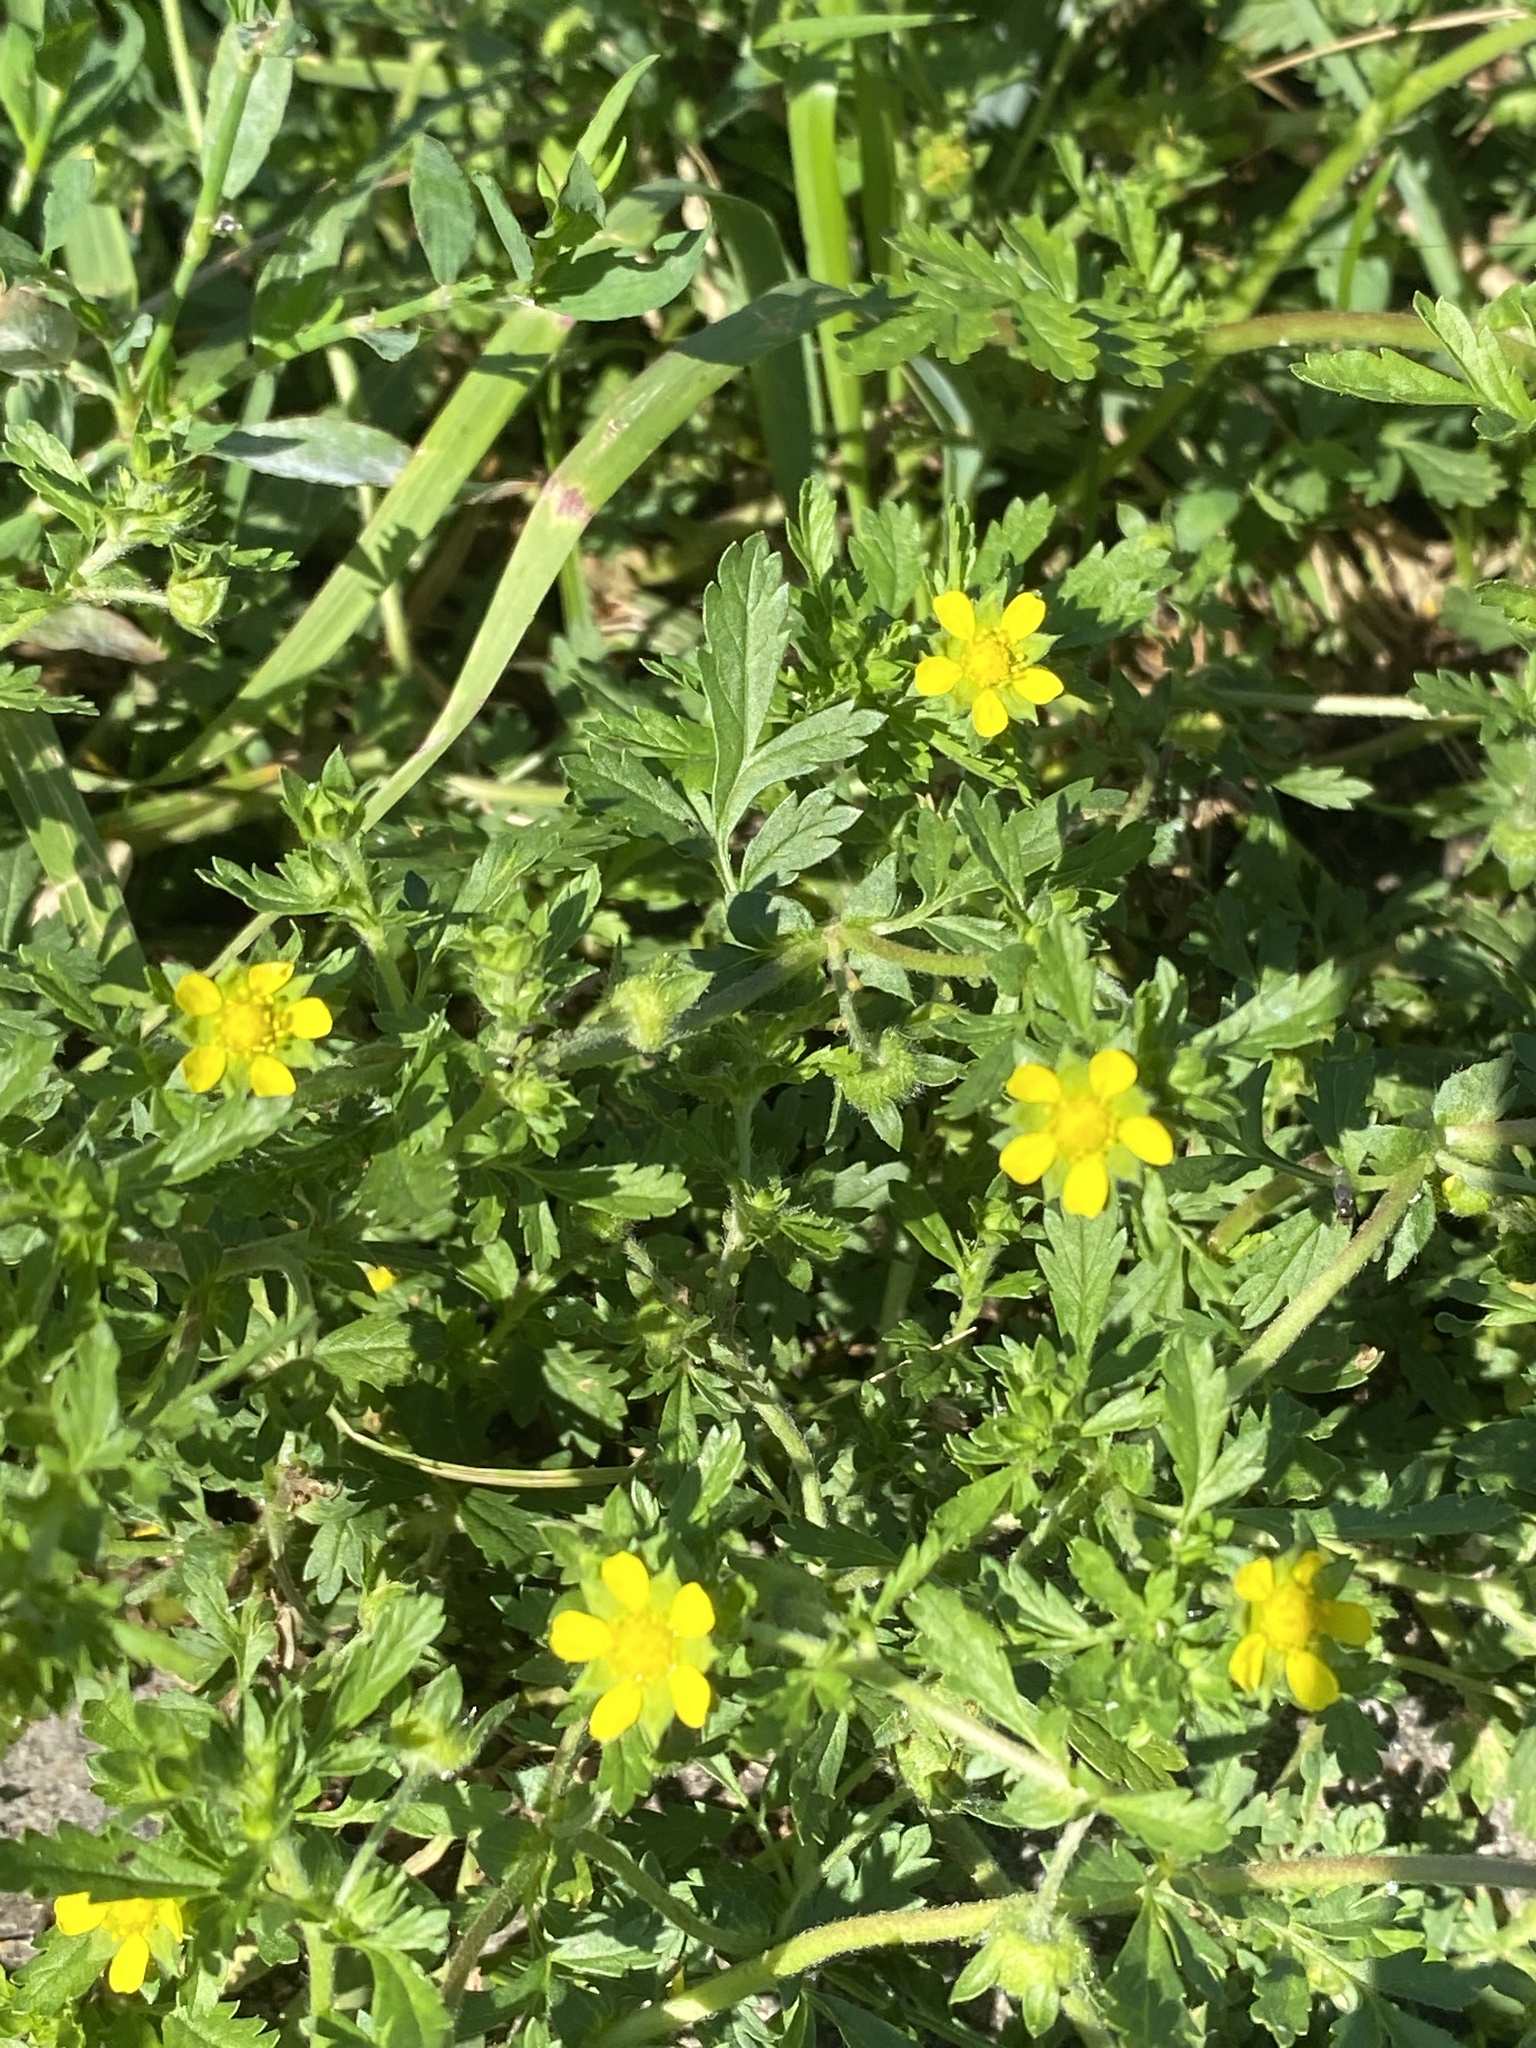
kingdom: Plantae
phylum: Tracheophyta
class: Magnoliopsida
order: Rosales
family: Rosaceae
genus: Potentilla
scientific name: Potentilla supina
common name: Prostrate cinquefoil
